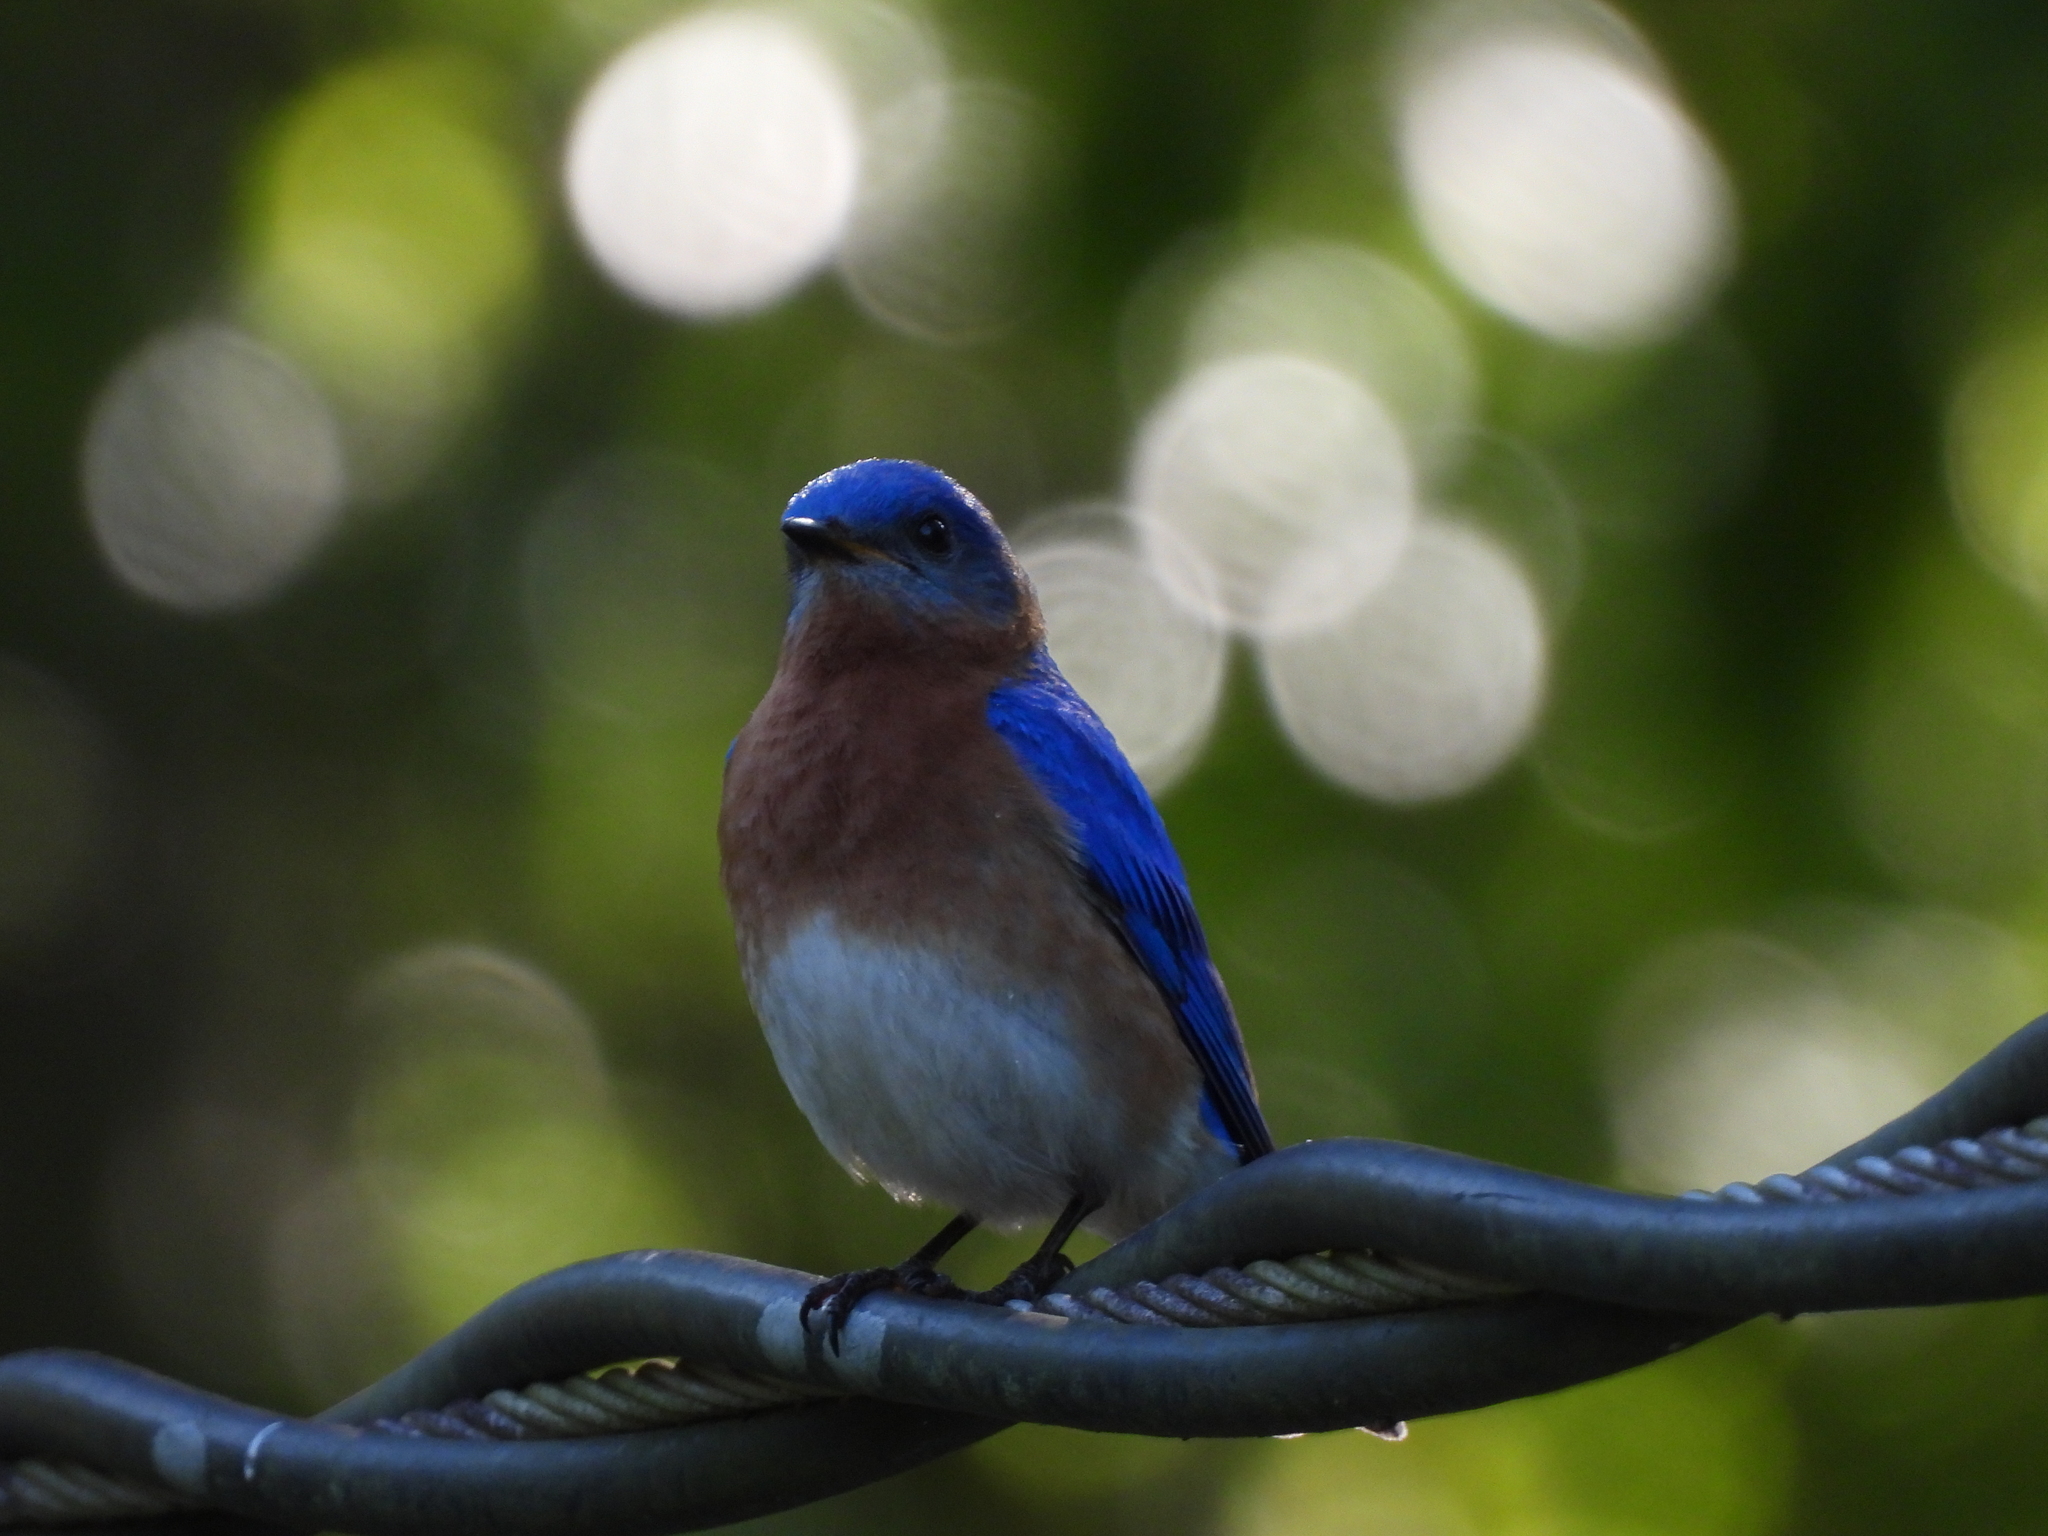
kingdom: Animalia
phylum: Chordata
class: Aves
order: Passeriformes
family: Turdidae
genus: Sialia
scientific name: Sialia sialis
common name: Eastern bluebird
